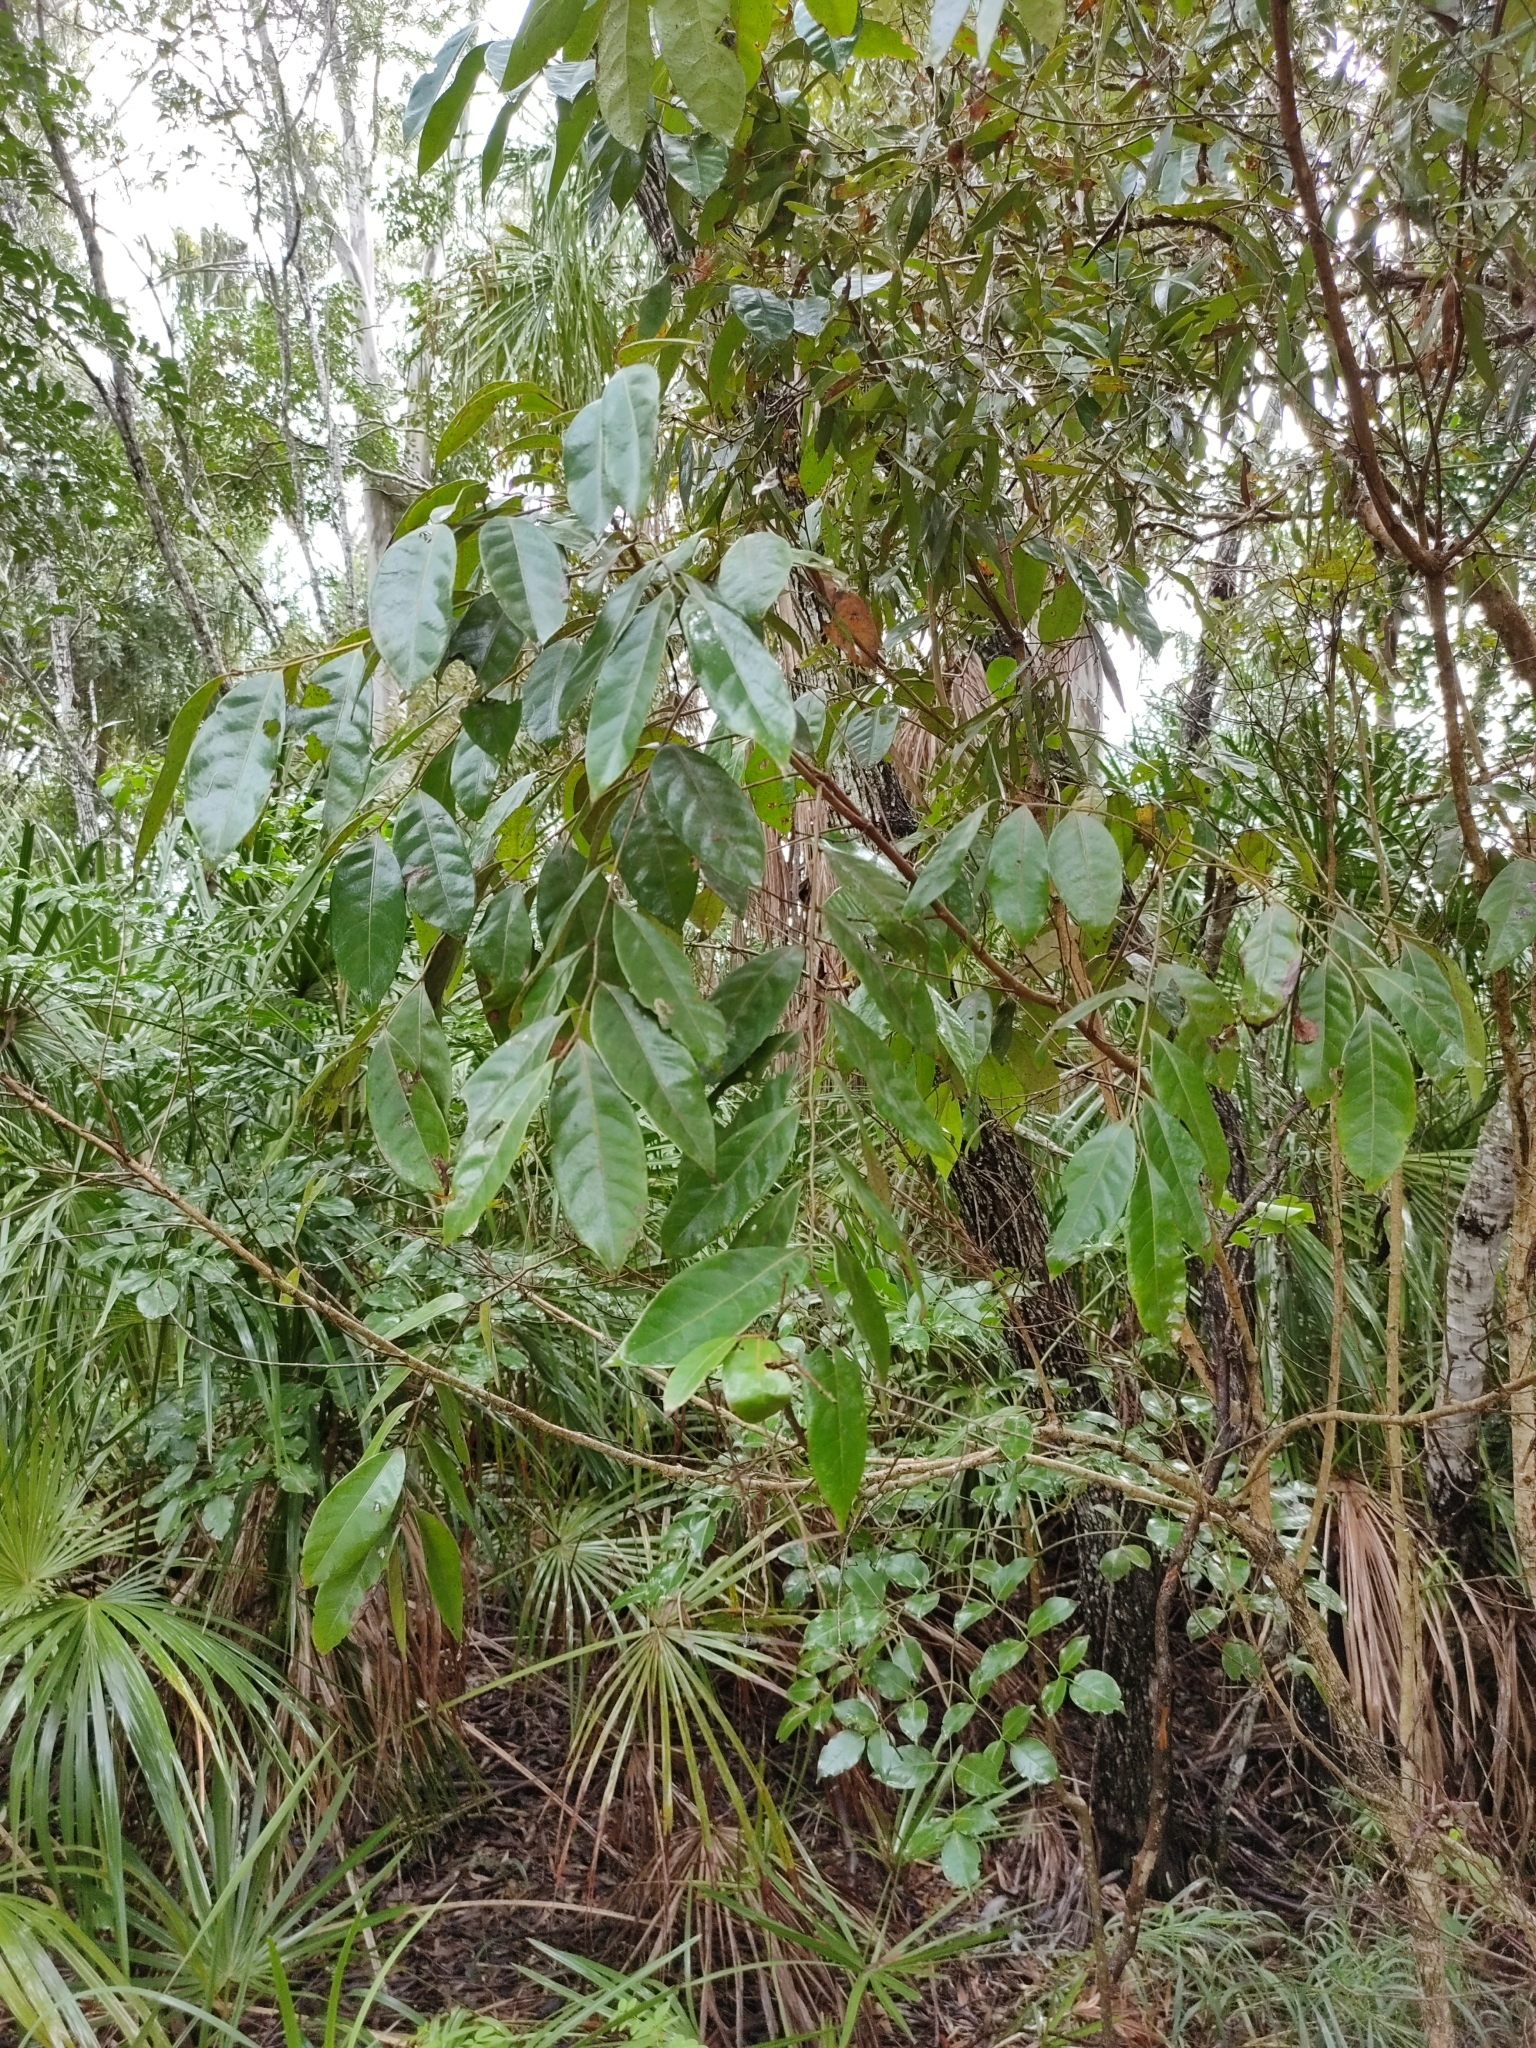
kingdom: Plantae
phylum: Tracheophyta
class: Magnoliopsida
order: Malpighiales
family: Phyllanthaceae
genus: Glochidion
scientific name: Glochidion ferdinandi
